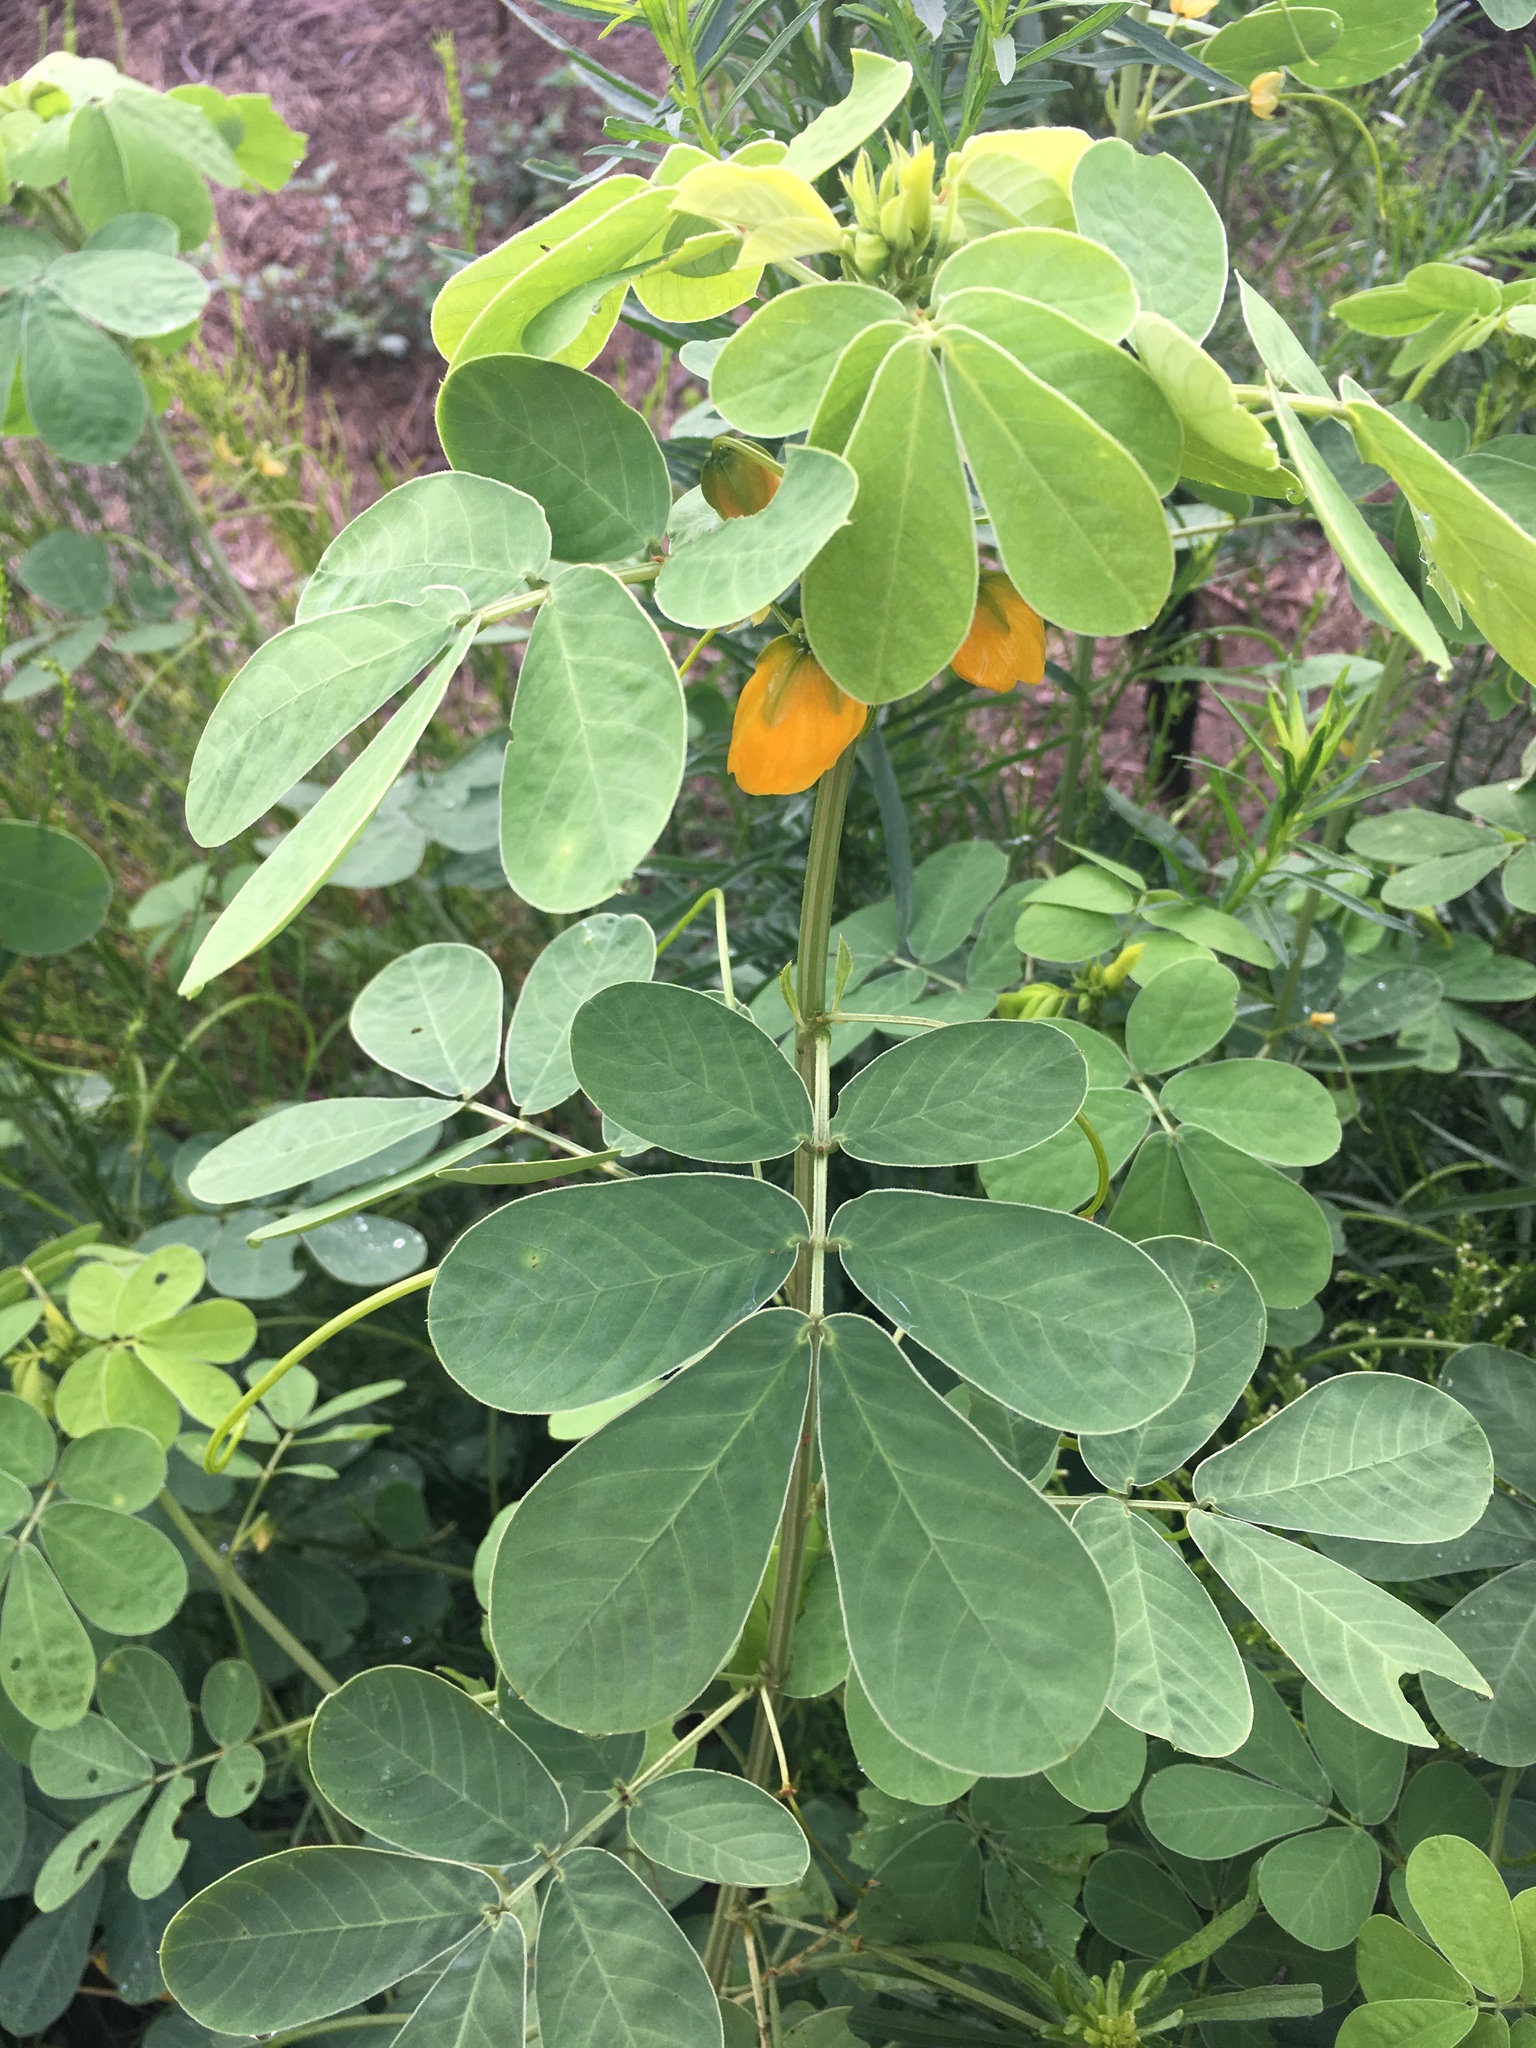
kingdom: Plantae
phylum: Tracheophyta
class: Magnoliopsida
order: Fabales
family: Fabaceae
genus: Senna
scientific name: Senna obtusifolia
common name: Java-bean
